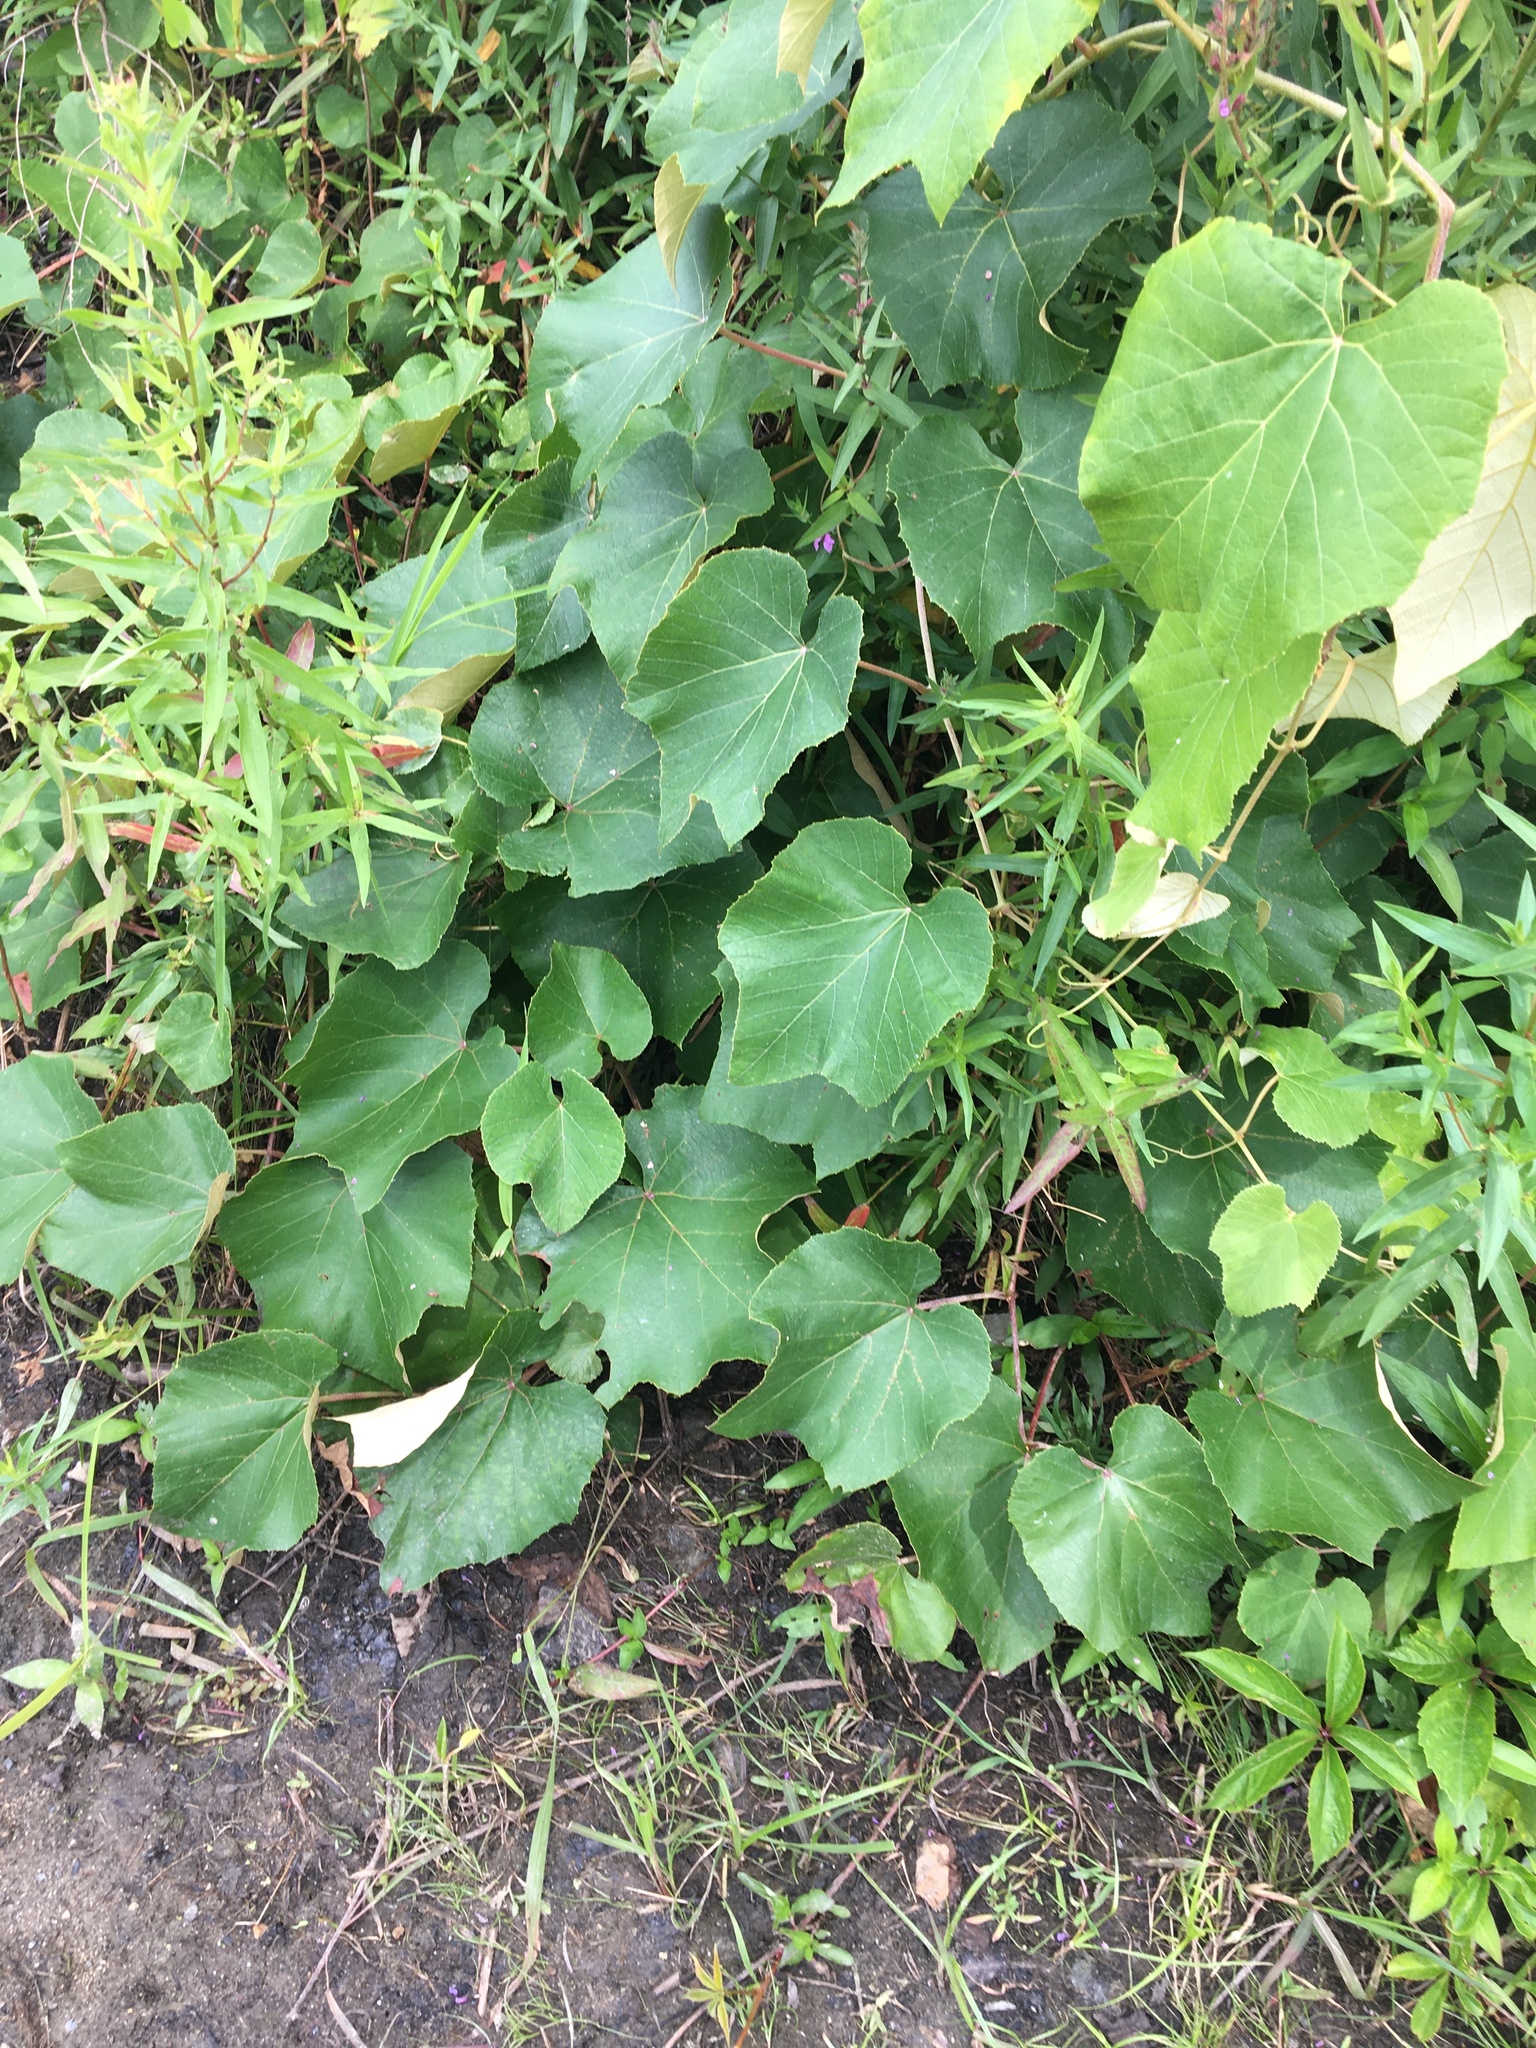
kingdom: Plantae
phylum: Tracheophyta
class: Magnoliopsida
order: Vitales
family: Vitaceae
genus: Vitis
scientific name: Vitis labrusca
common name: Concord grape
